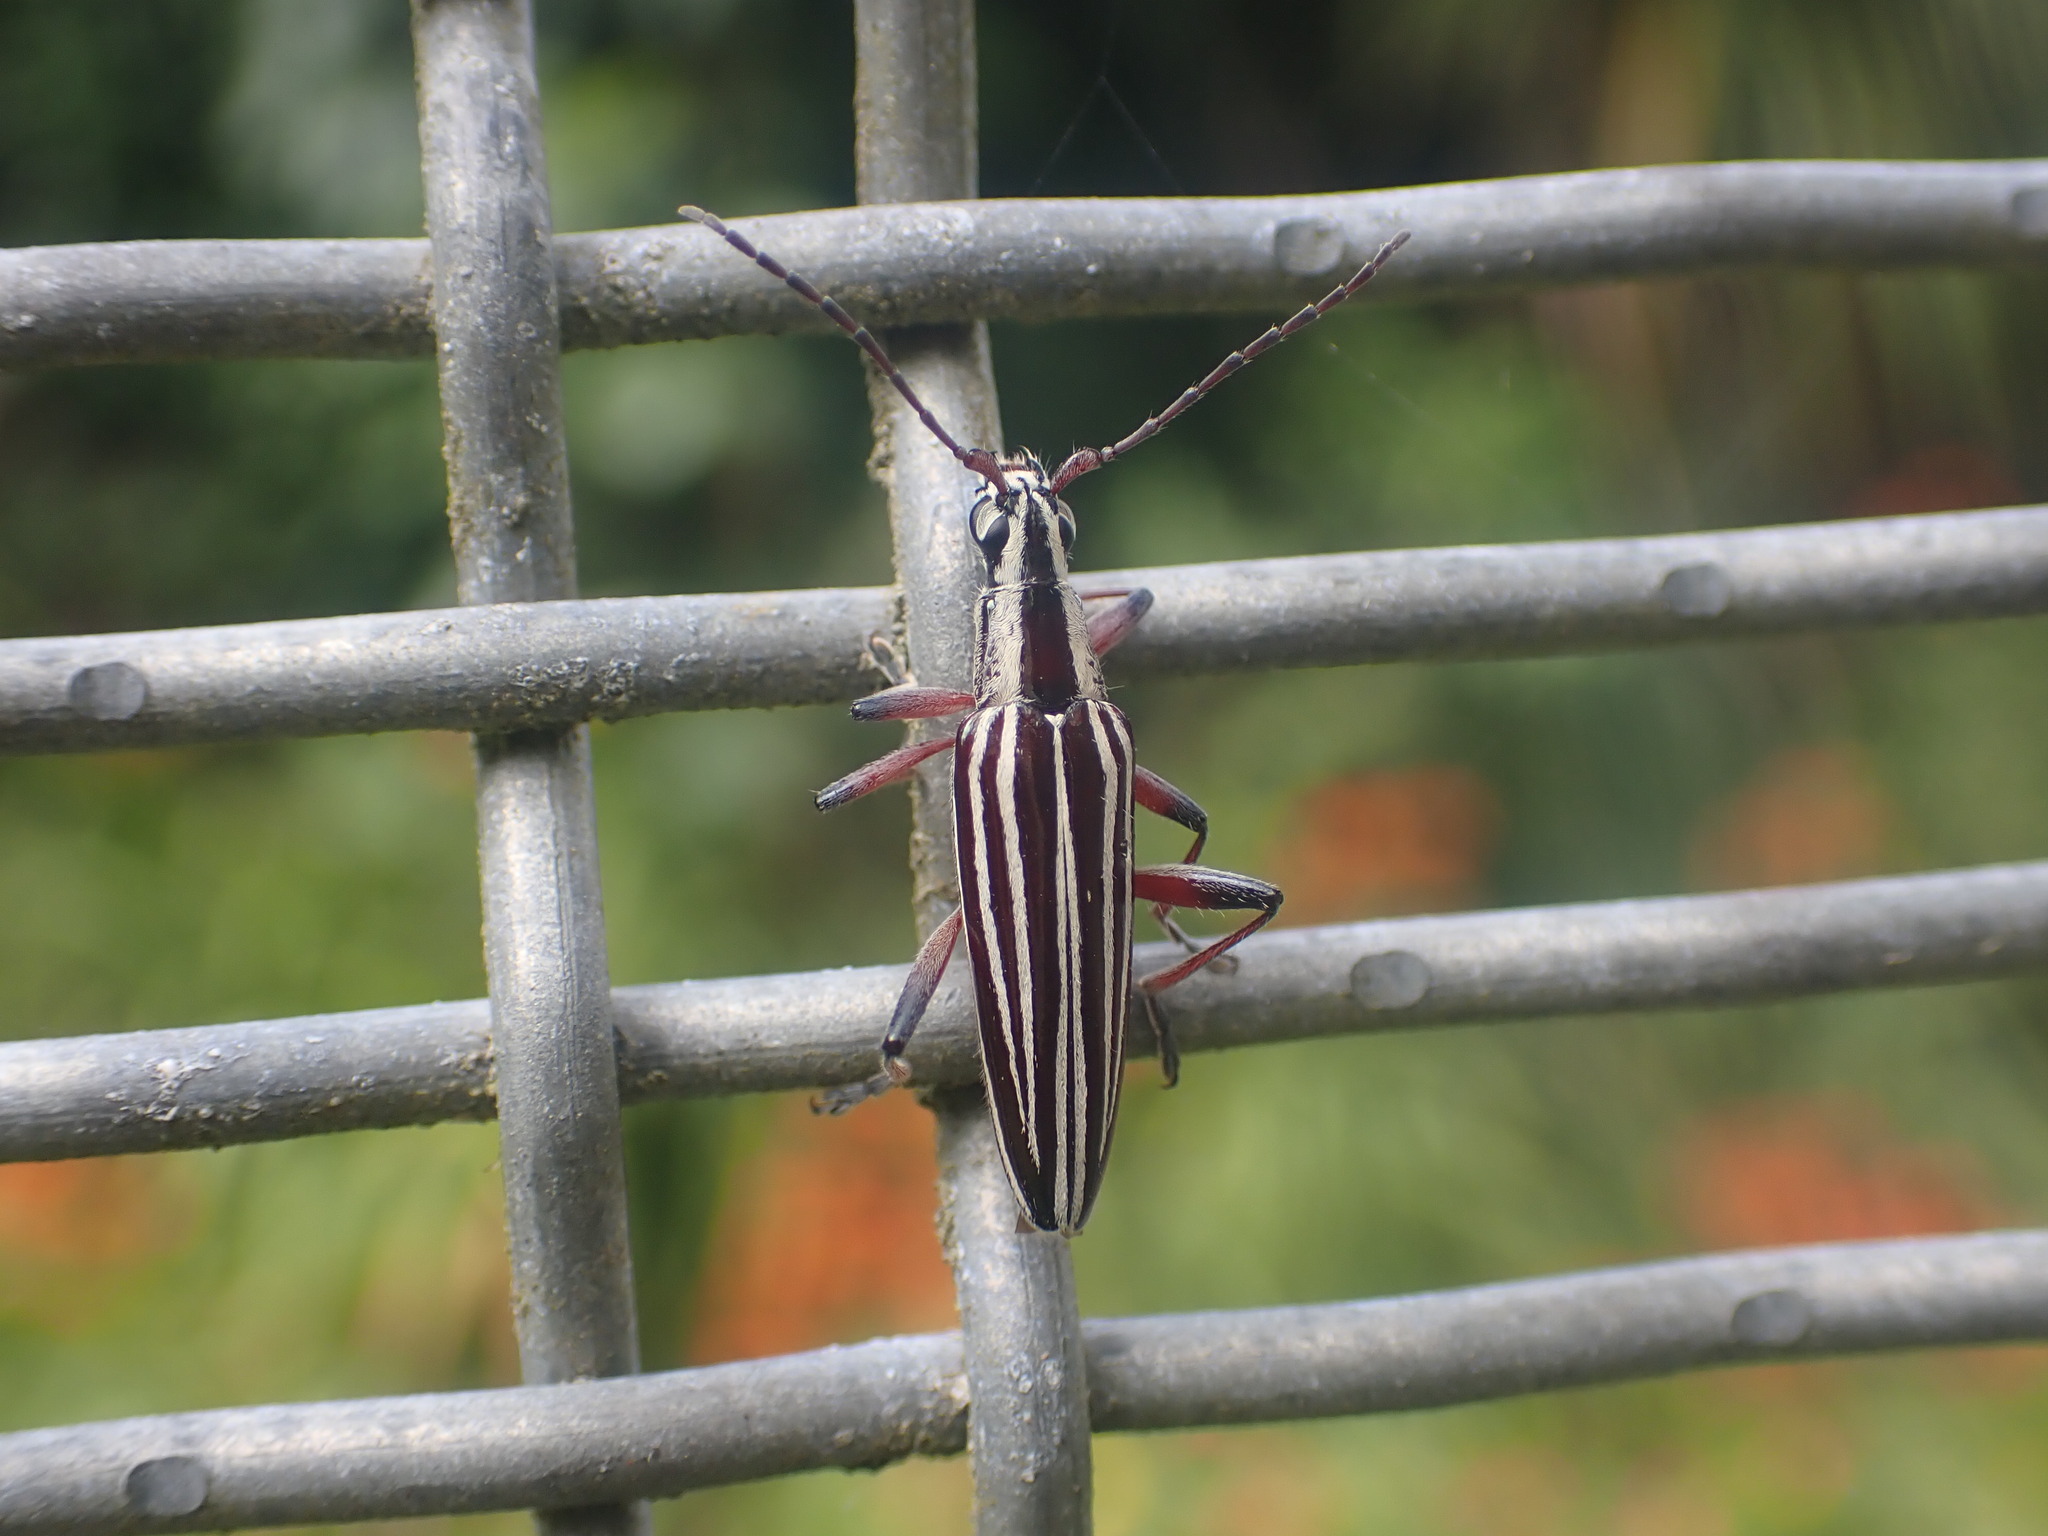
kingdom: Animalia
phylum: Arthropoda
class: Insecta
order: Coleoptera
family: Cerambycidae
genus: Coptomma
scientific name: Coptomma lineatum
